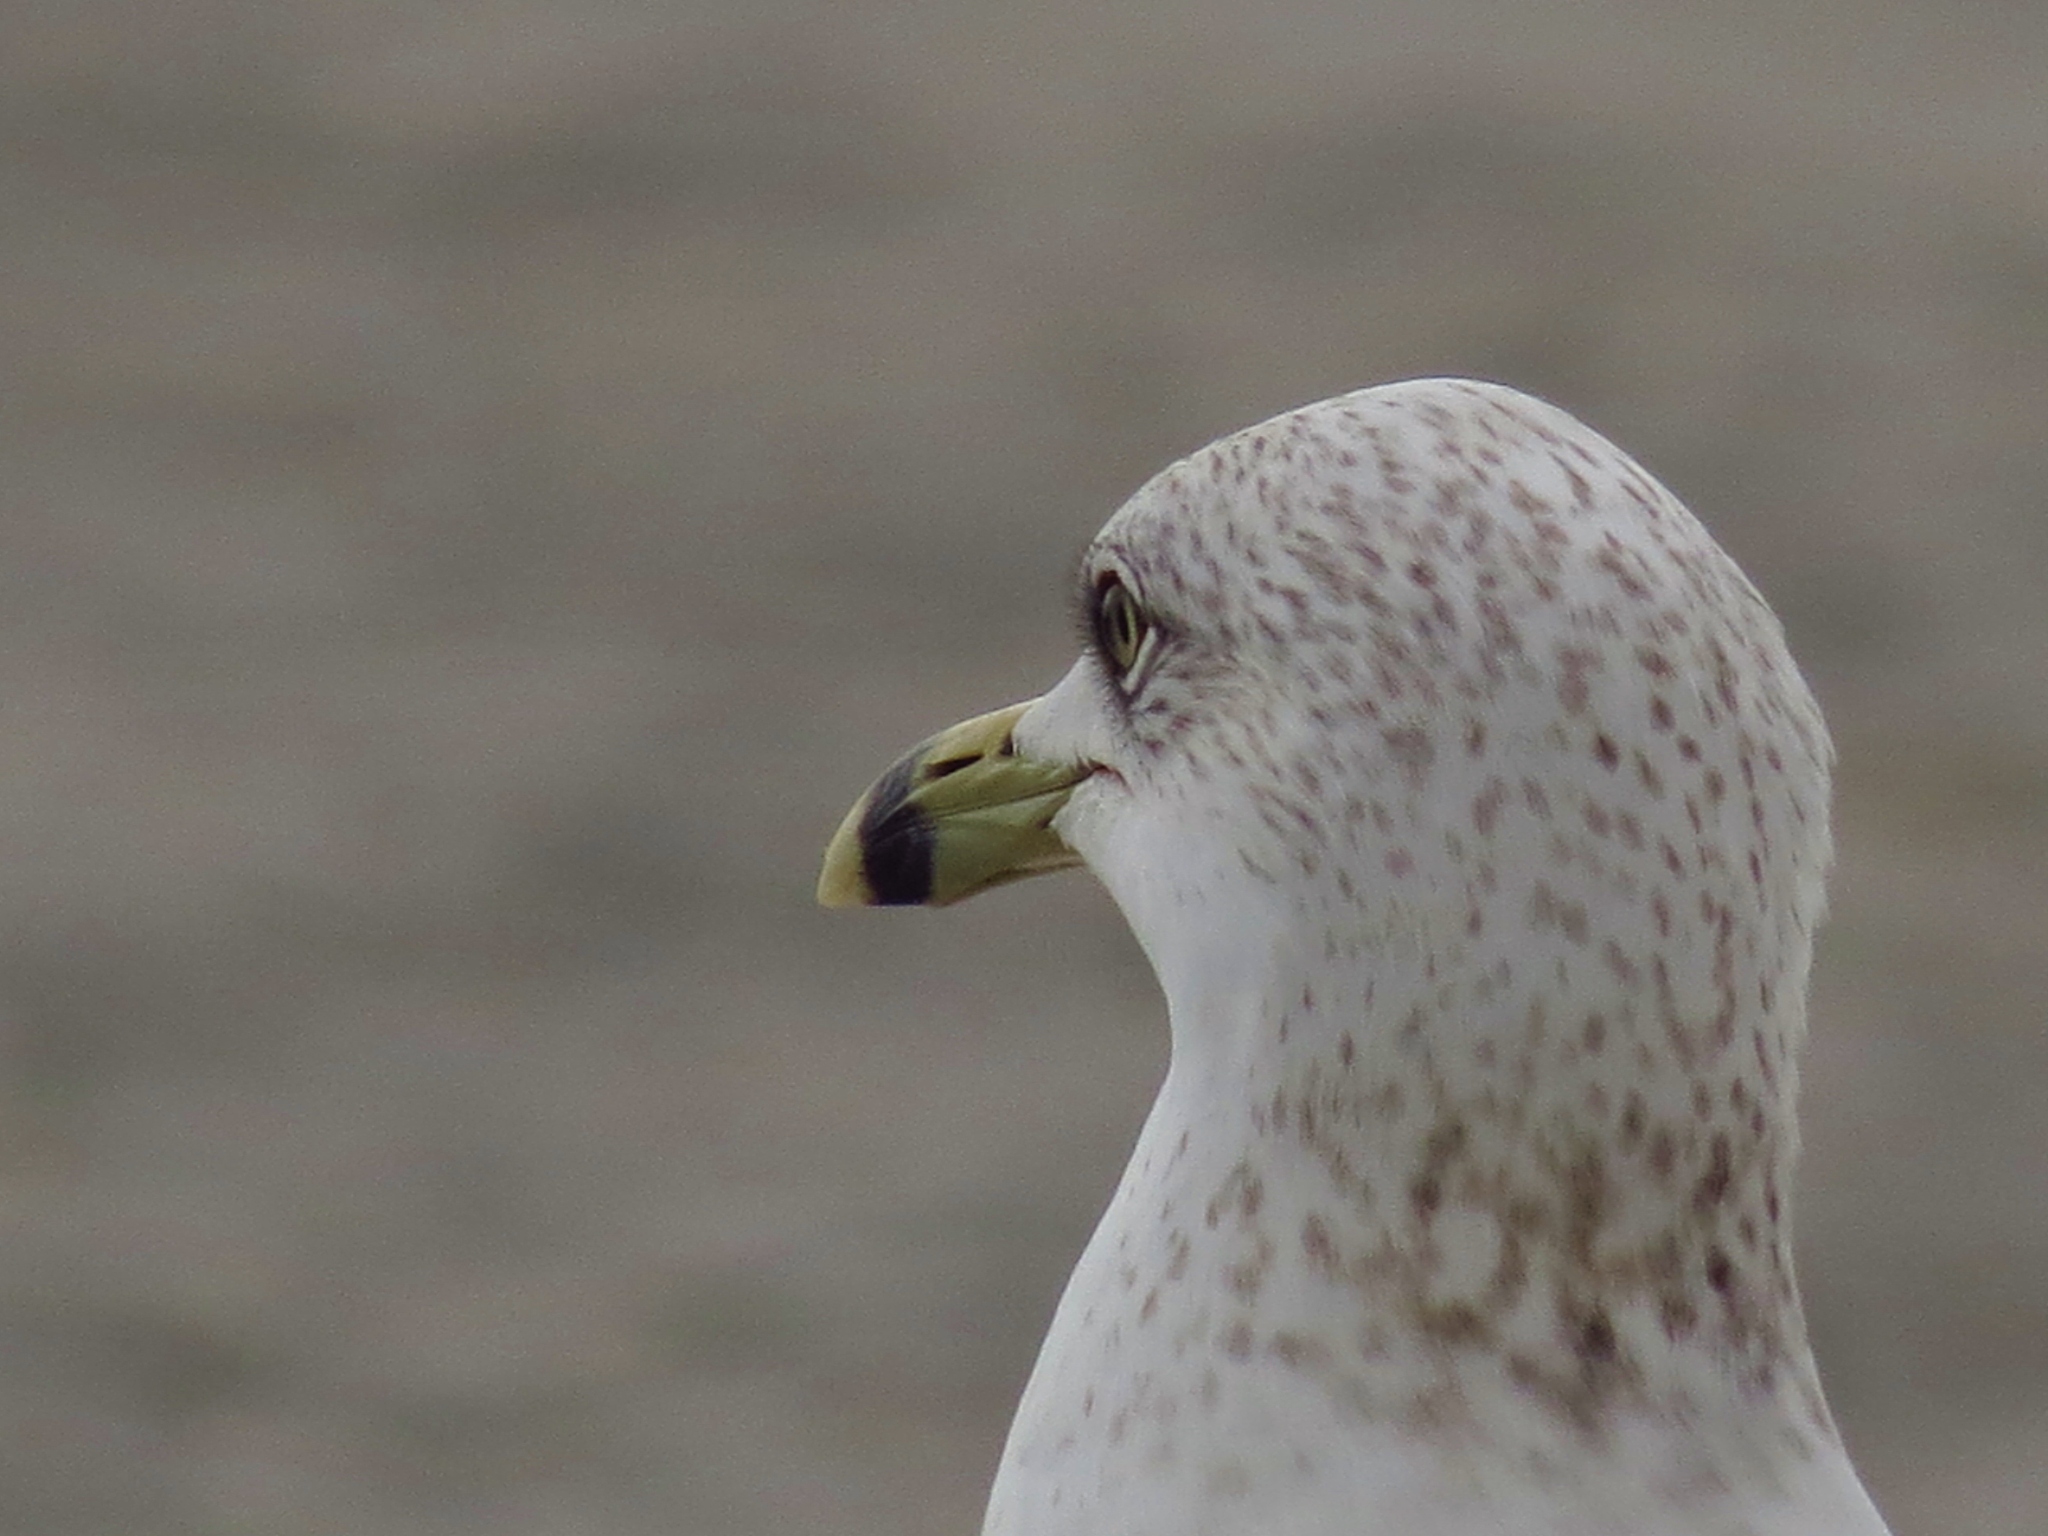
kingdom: Animalia
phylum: Chordata
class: Aves
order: Charadriiformes
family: Laridae
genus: Larus
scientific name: Larus delawarensis
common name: Ring-billed gull
